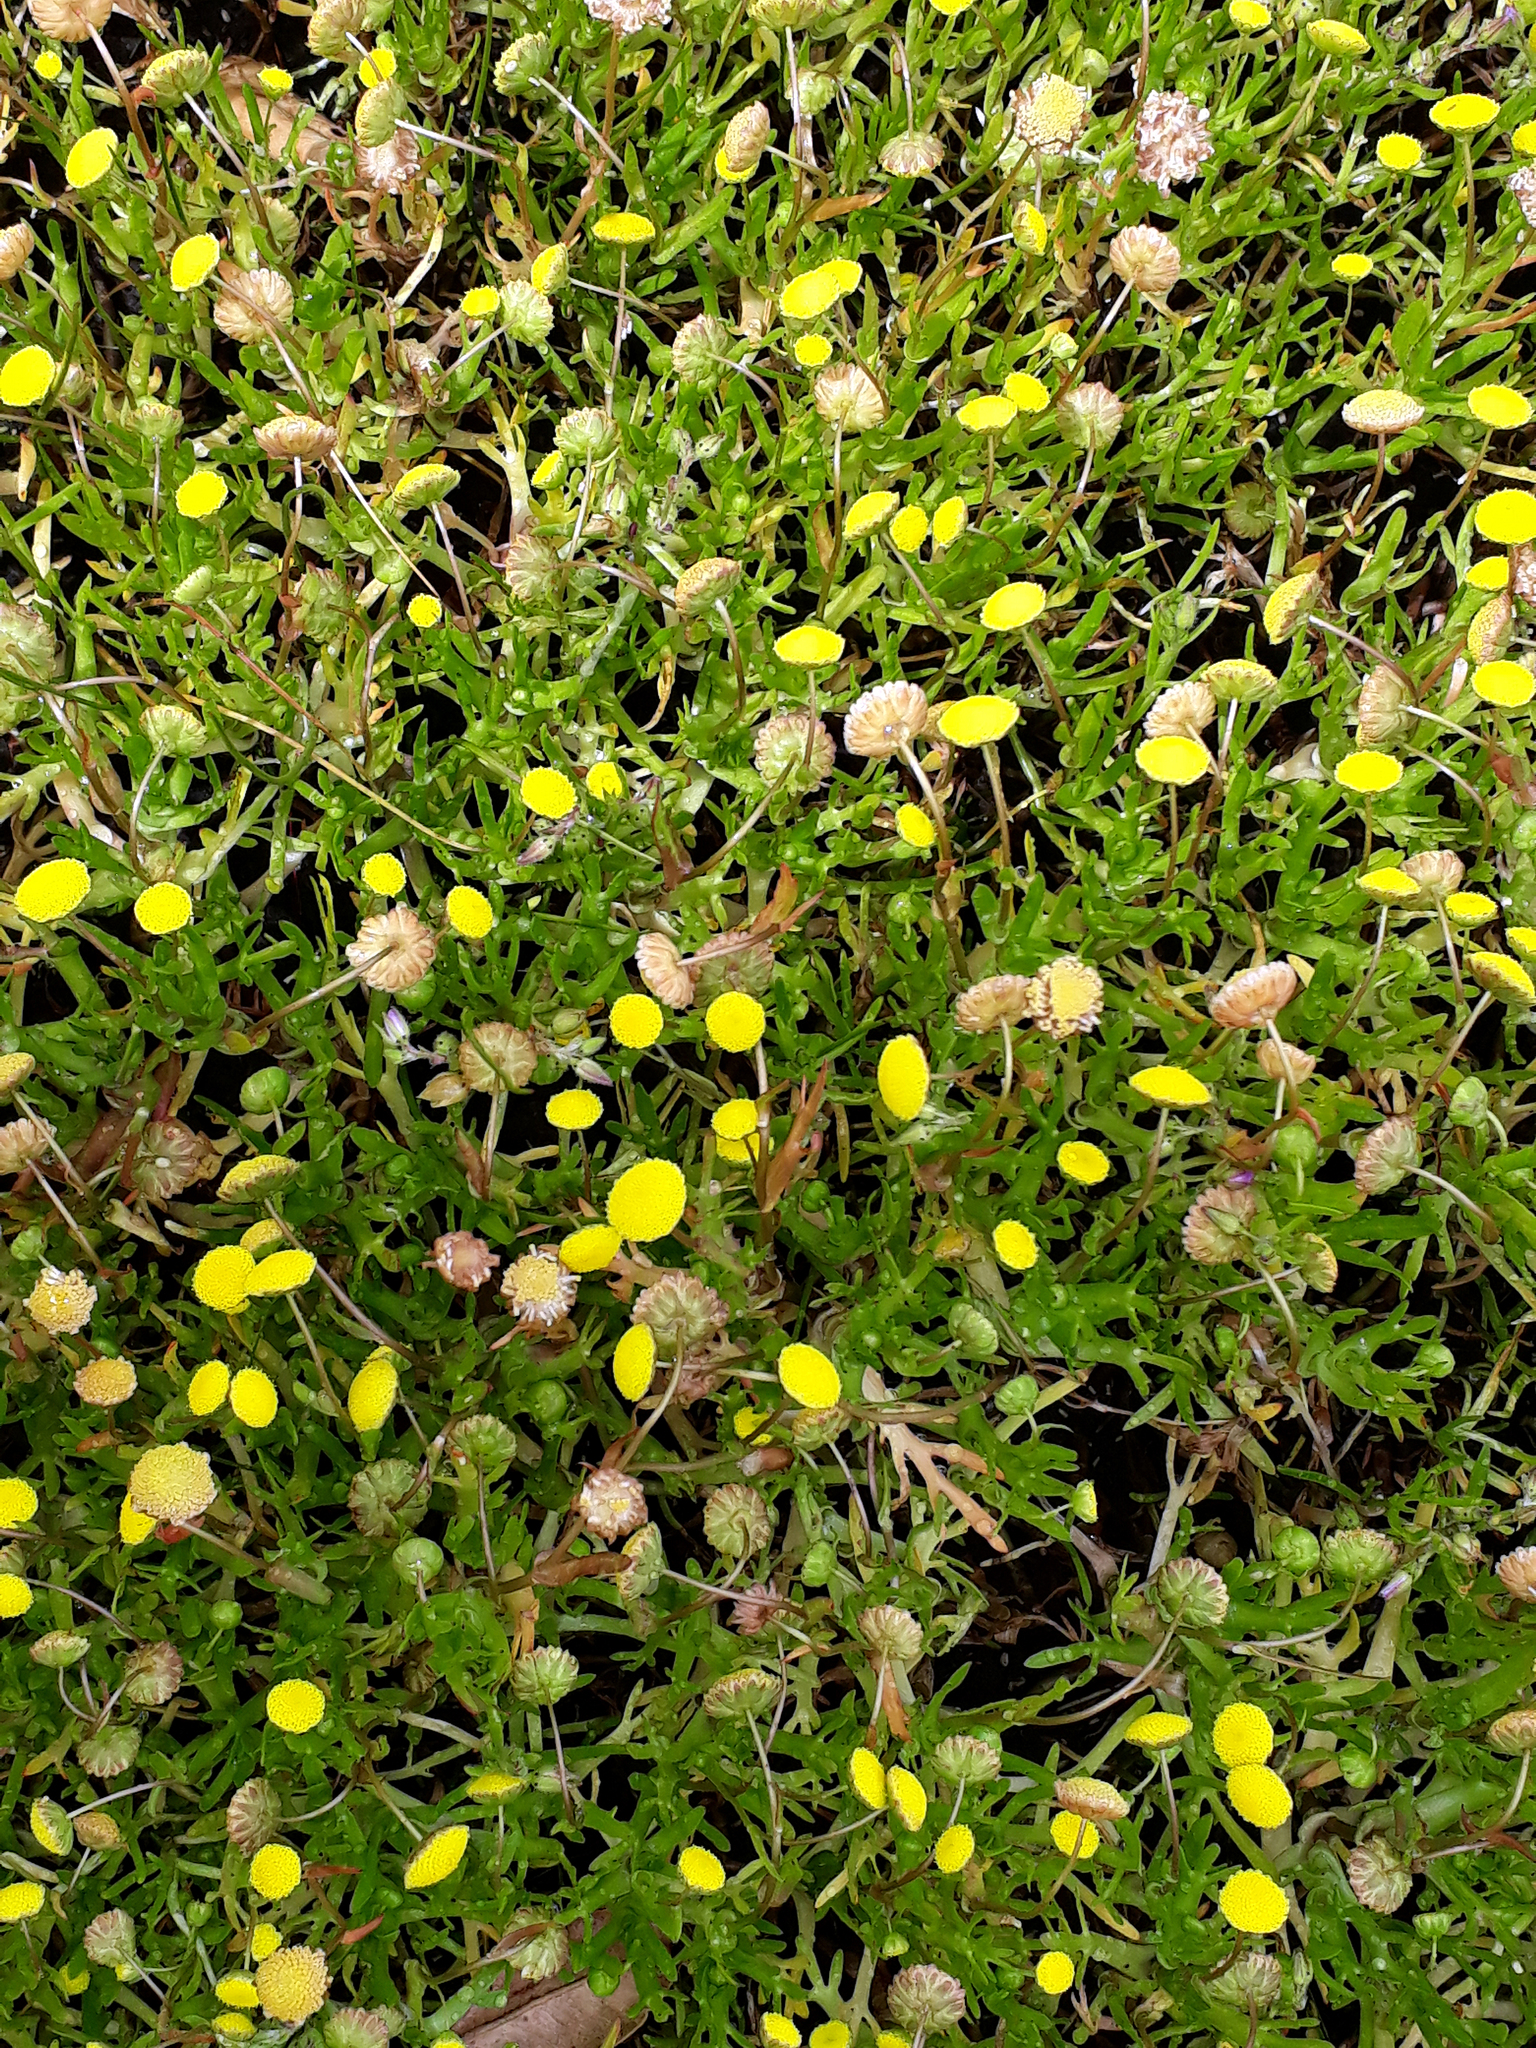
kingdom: Plantae
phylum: Tracheophyta
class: Magnoliopsida
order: Asterales
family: Asteraceae
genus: Cotula
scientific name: Cotula coronopifolia
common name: Buttonweed
